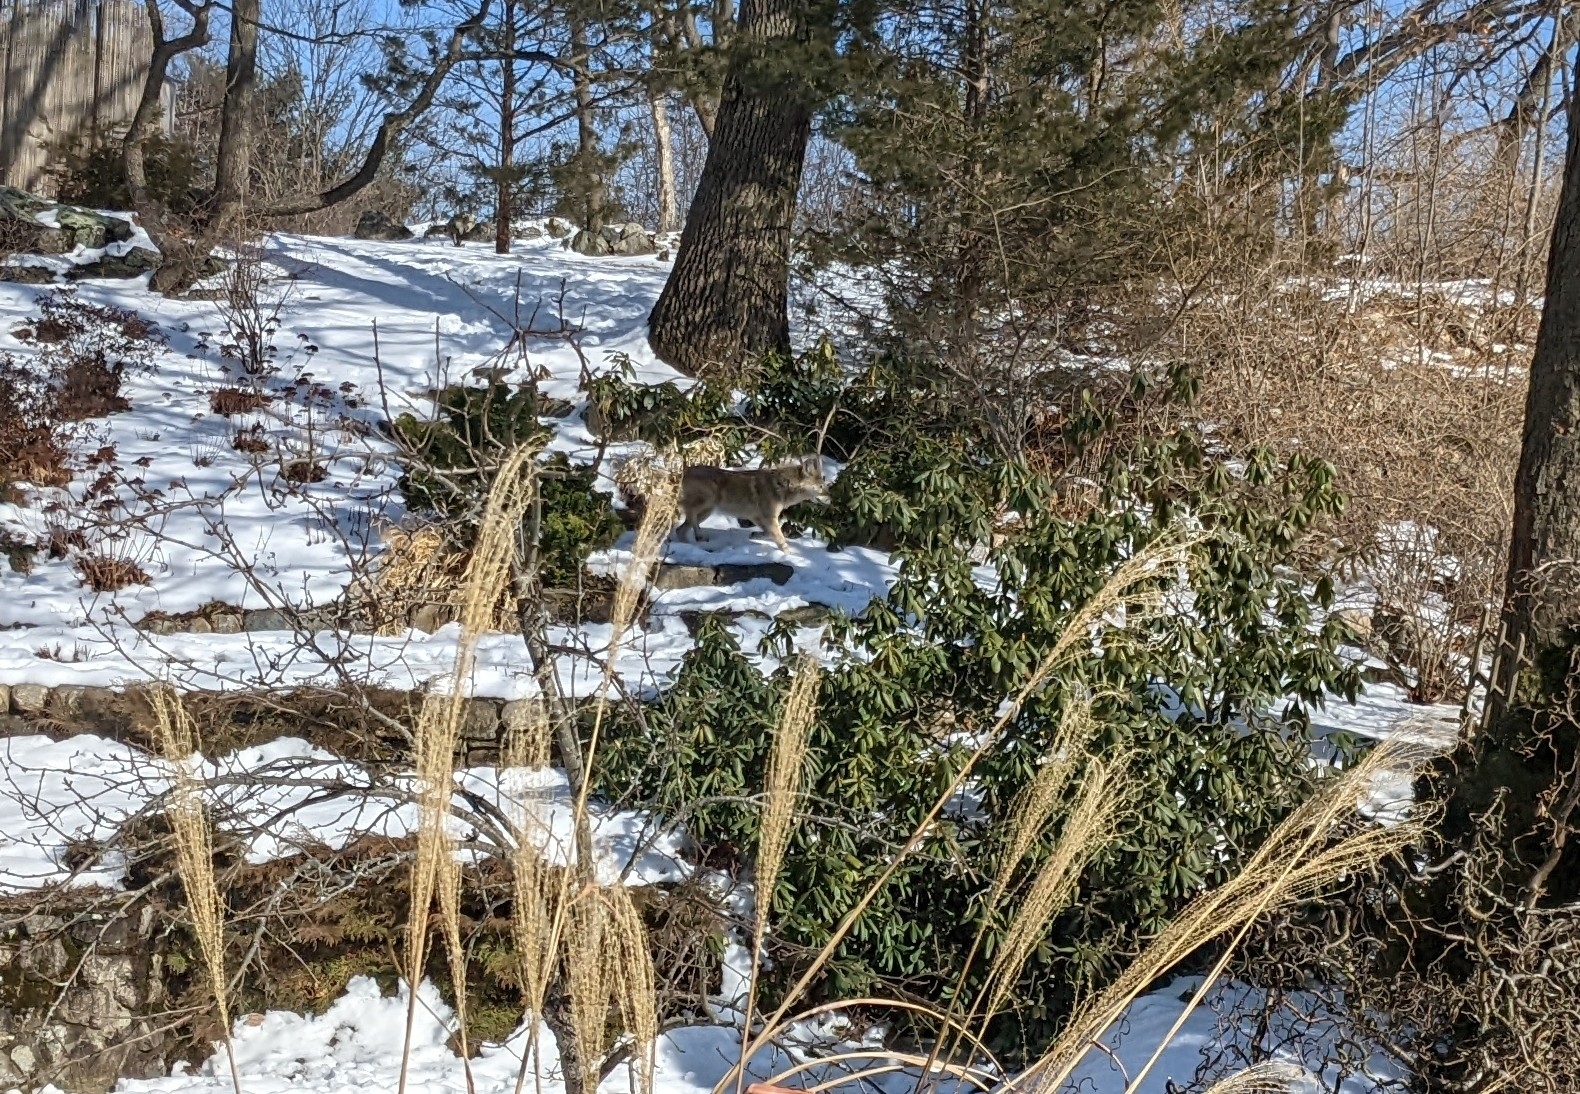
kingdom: Animalia
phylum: Chordata
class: Mammalia
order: Carnivora
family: Canidae
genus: Canis
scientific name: Canis latrans
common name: Coyote
